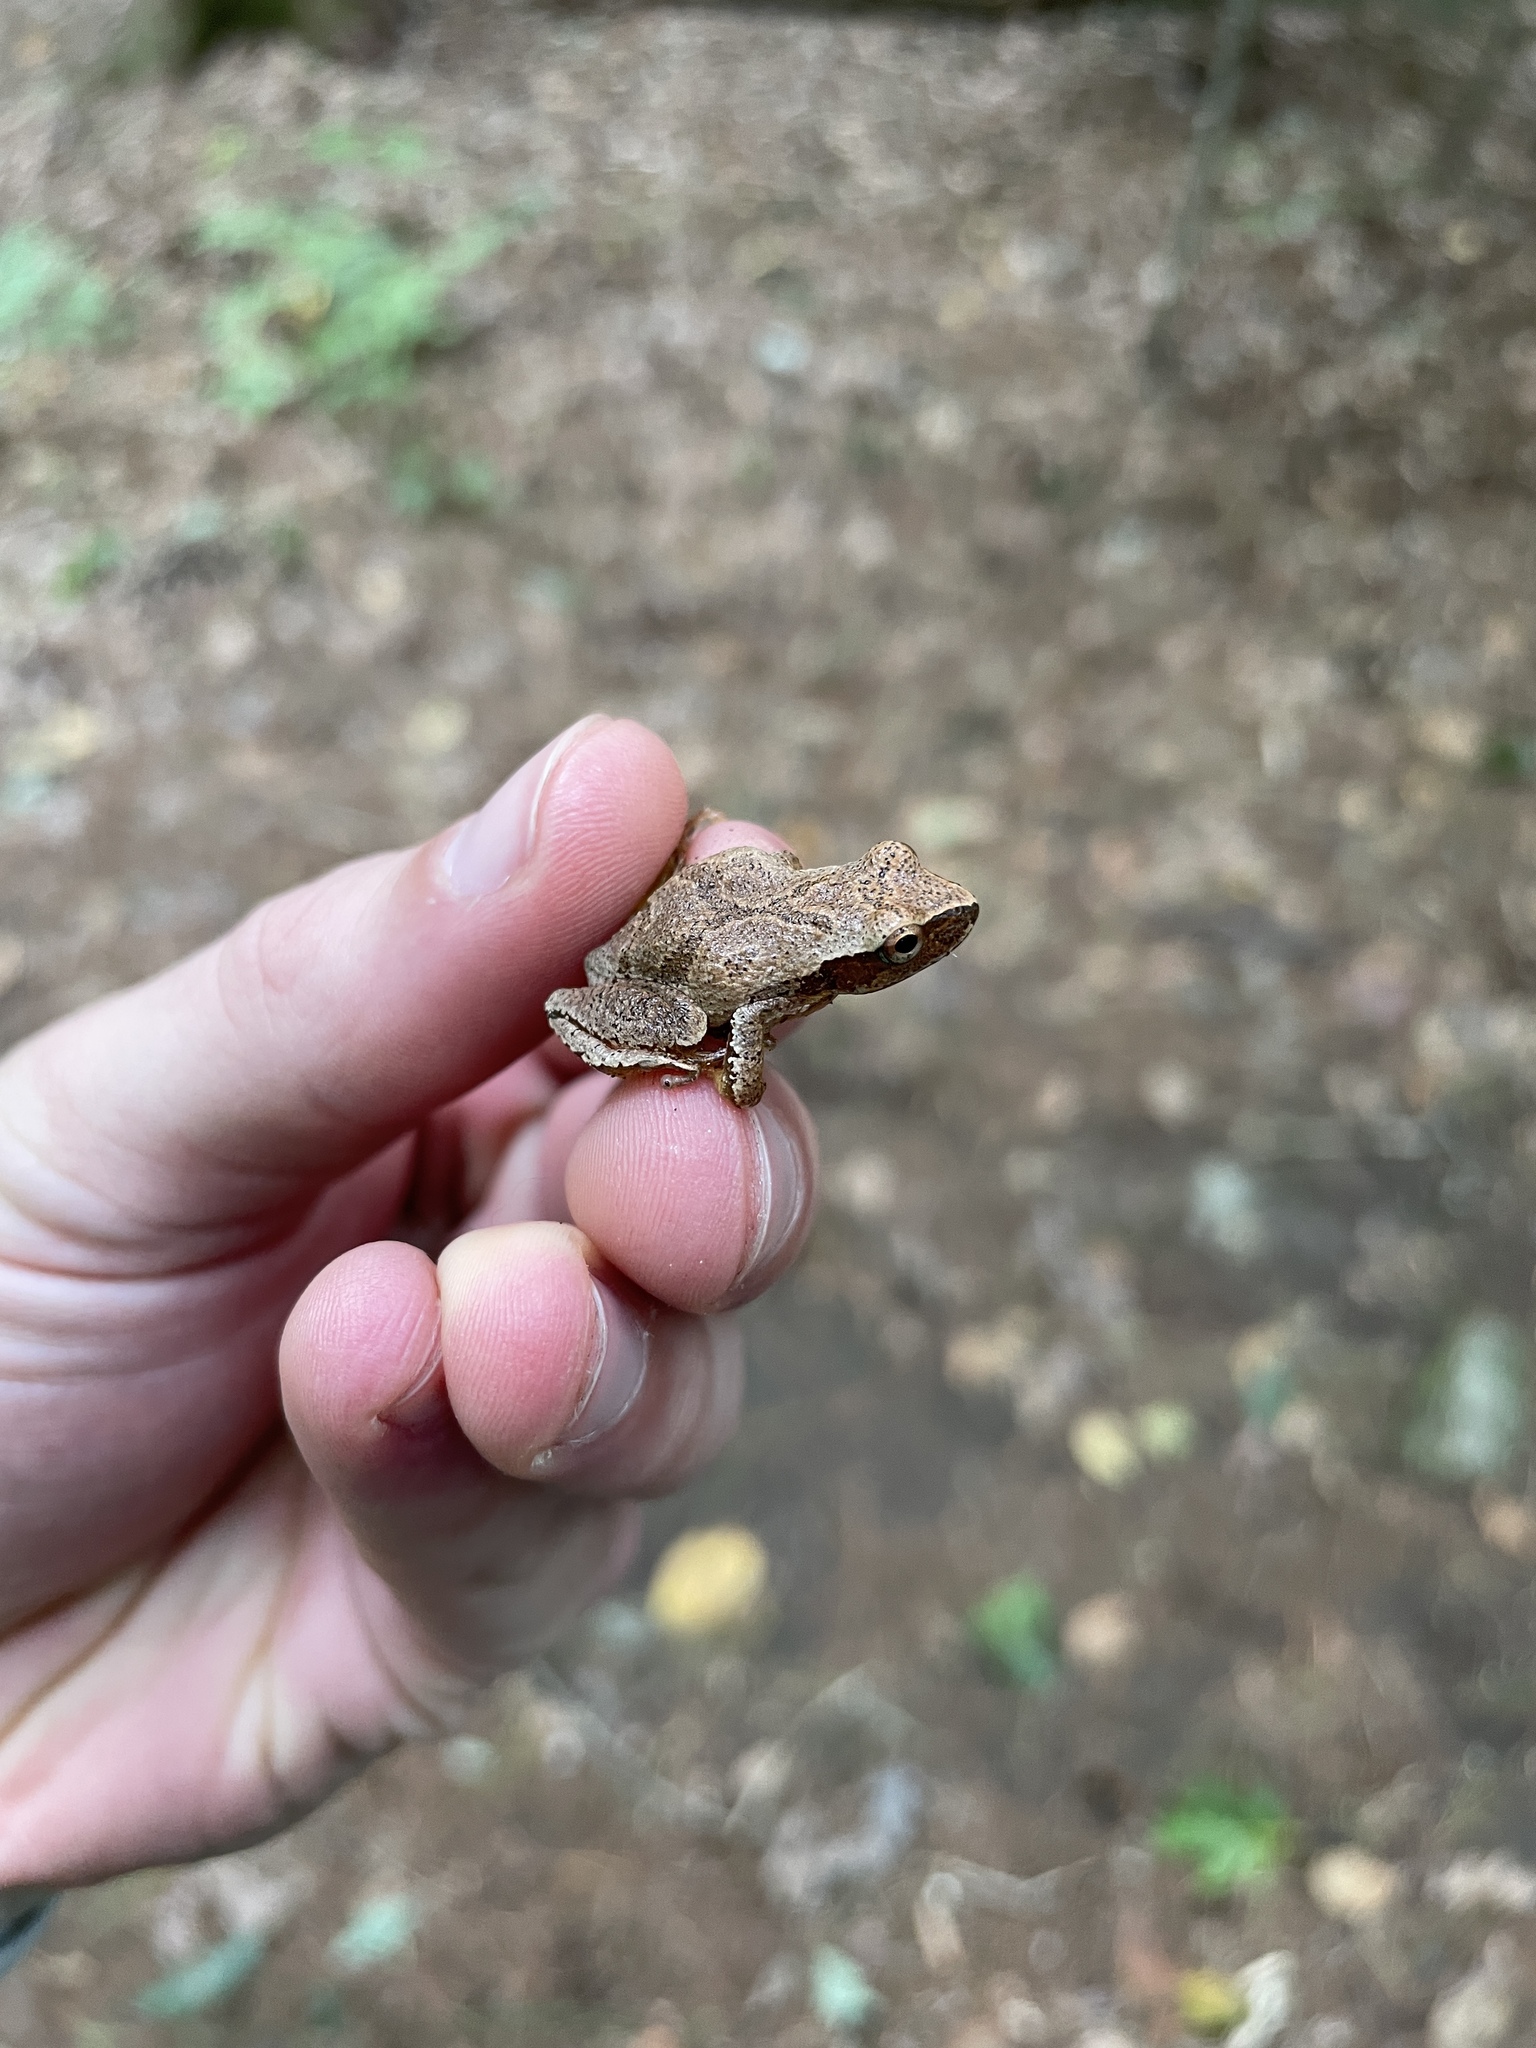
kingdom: Animalia
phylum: Chordata
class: Amphibia
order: Anura
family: Hylidae
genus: Pseudacris
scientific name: Pseudacris crucifer
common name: Spring peeper
